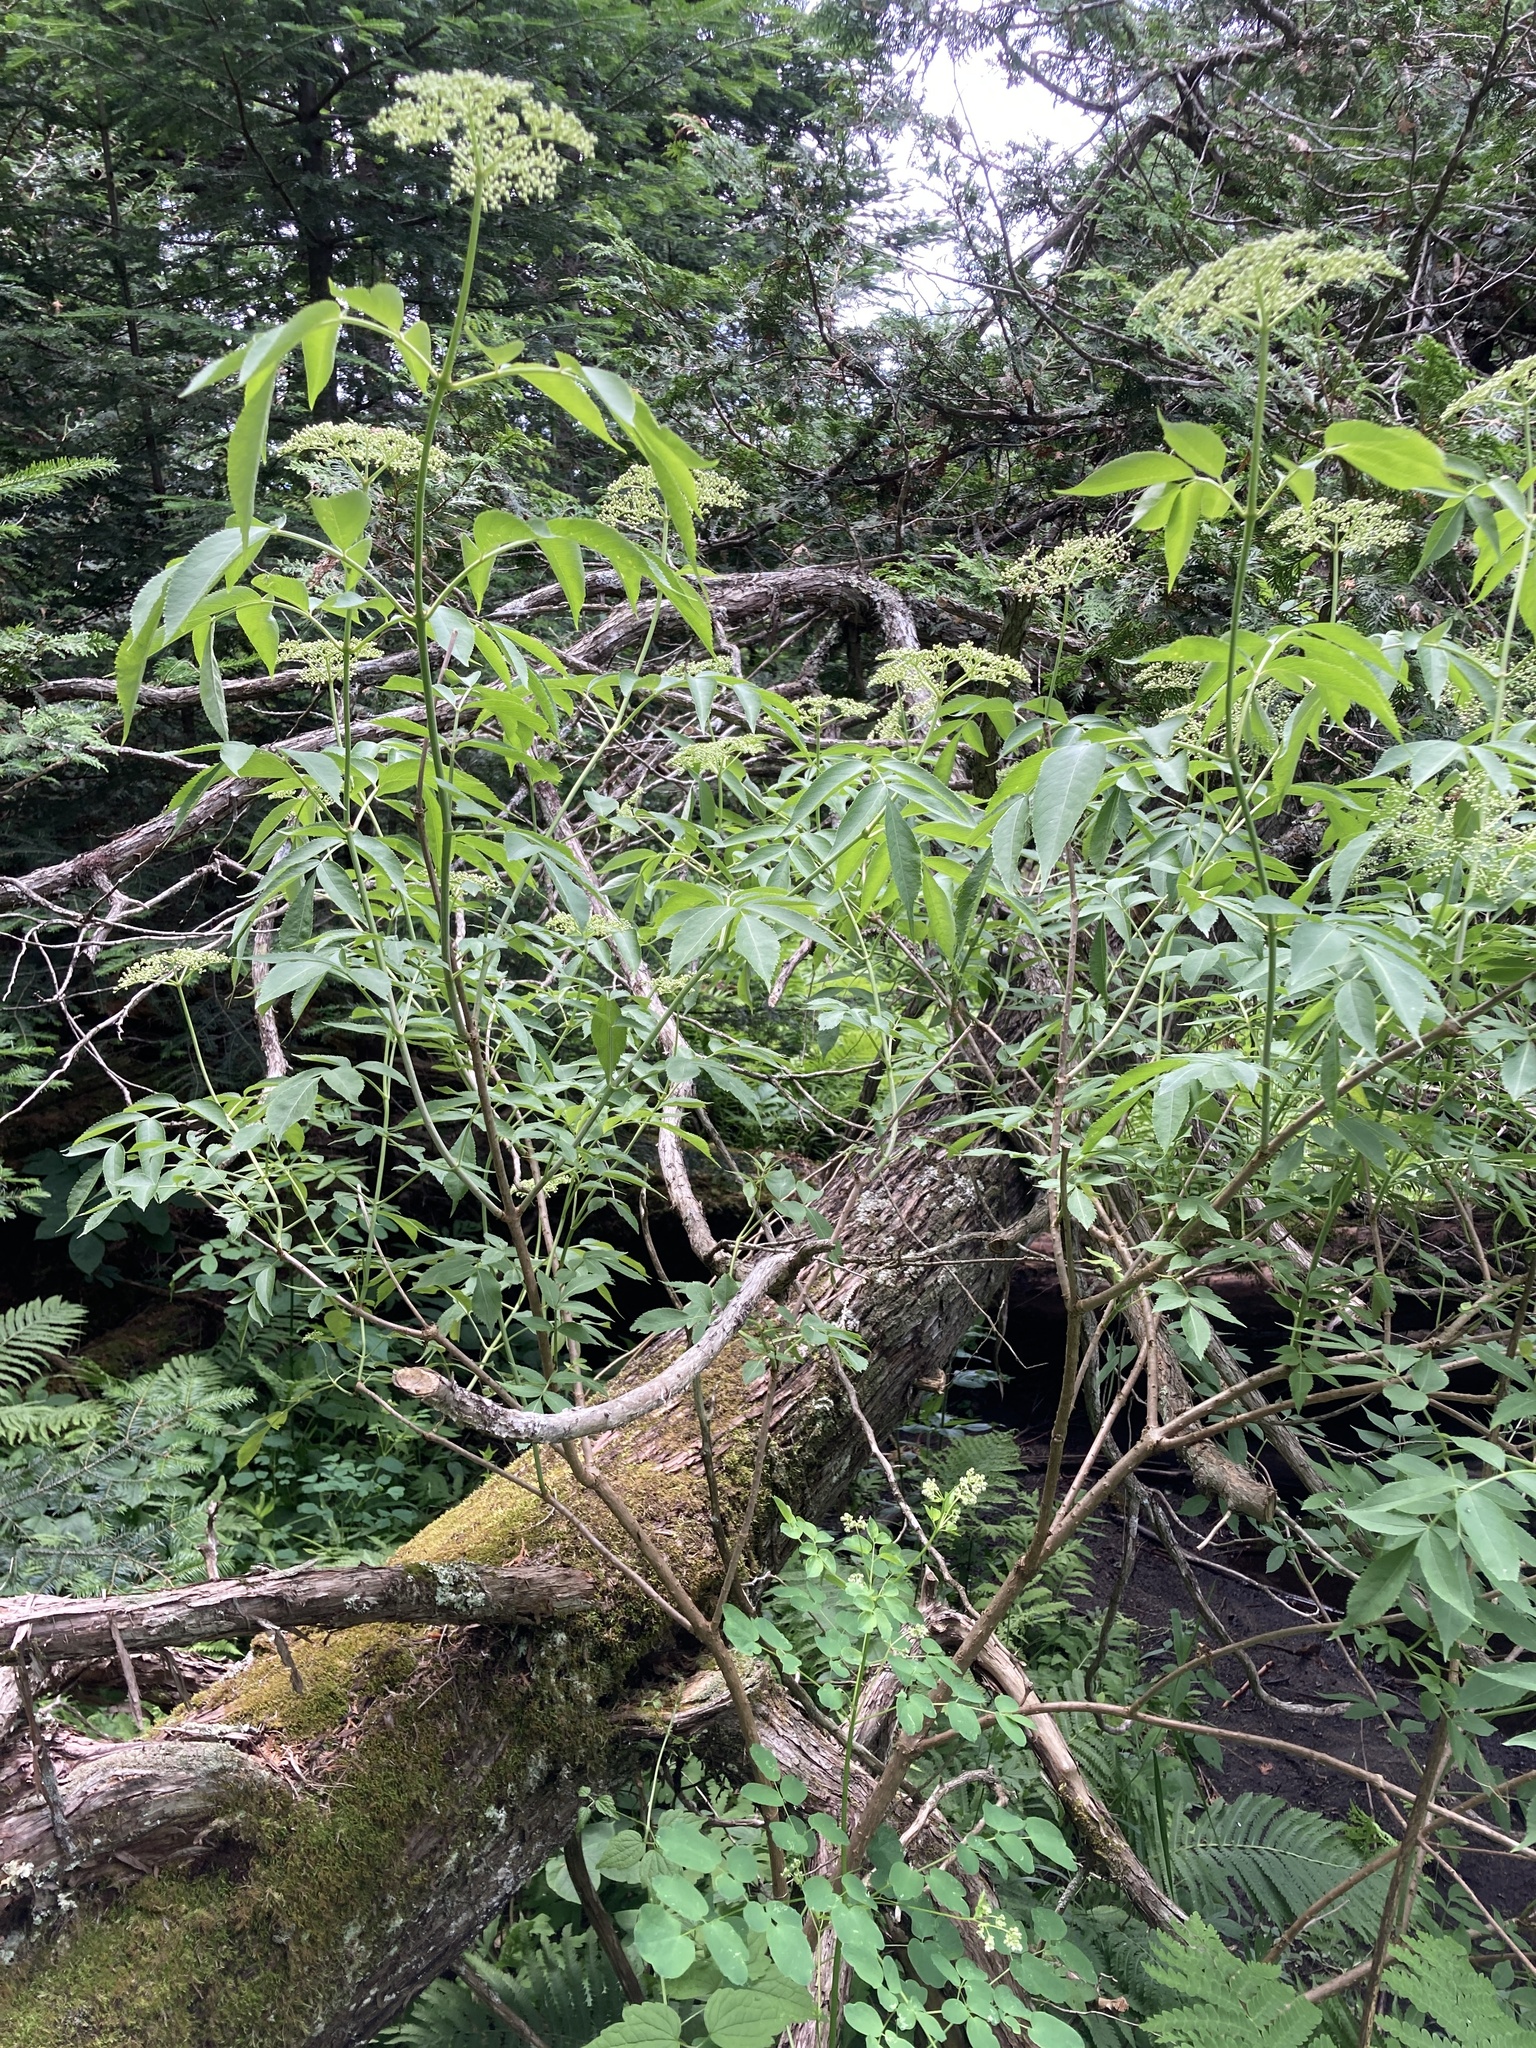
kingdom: Plantae
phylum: Tracheophyta
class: Magnoliopsida
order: Dipsacales
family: Viburnaceae
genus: Sambucus
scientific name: Sambucus canadensis
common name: American elder
